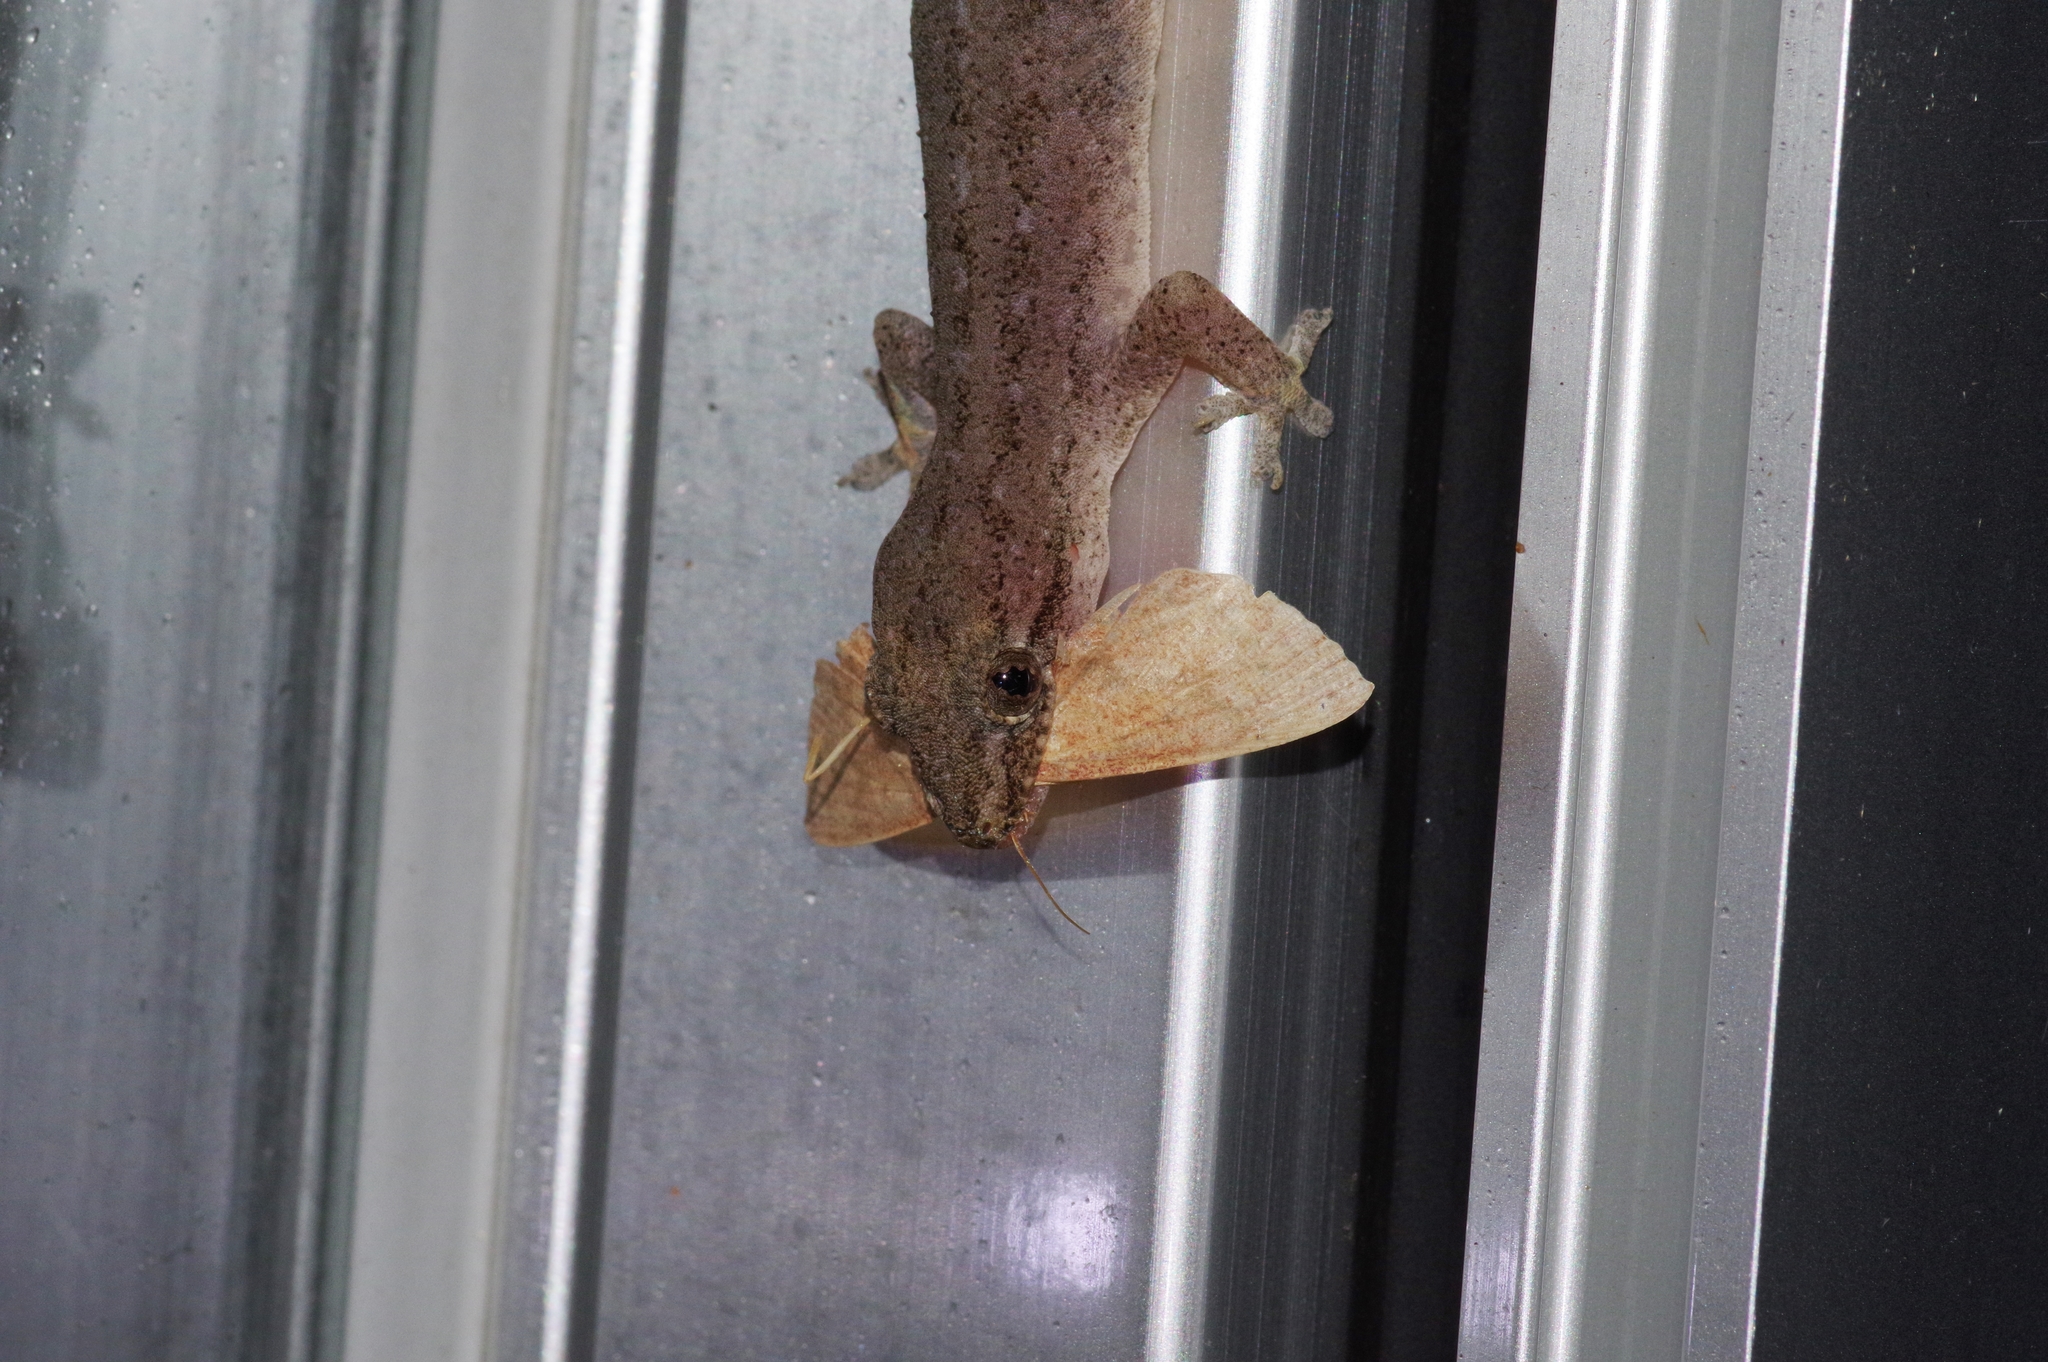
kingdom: Animalia
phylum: Chordata
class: Squamata
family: Gekkonidae
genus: Hemidactylus
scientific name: Hemidactylus frenatus
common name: Common house gecko
